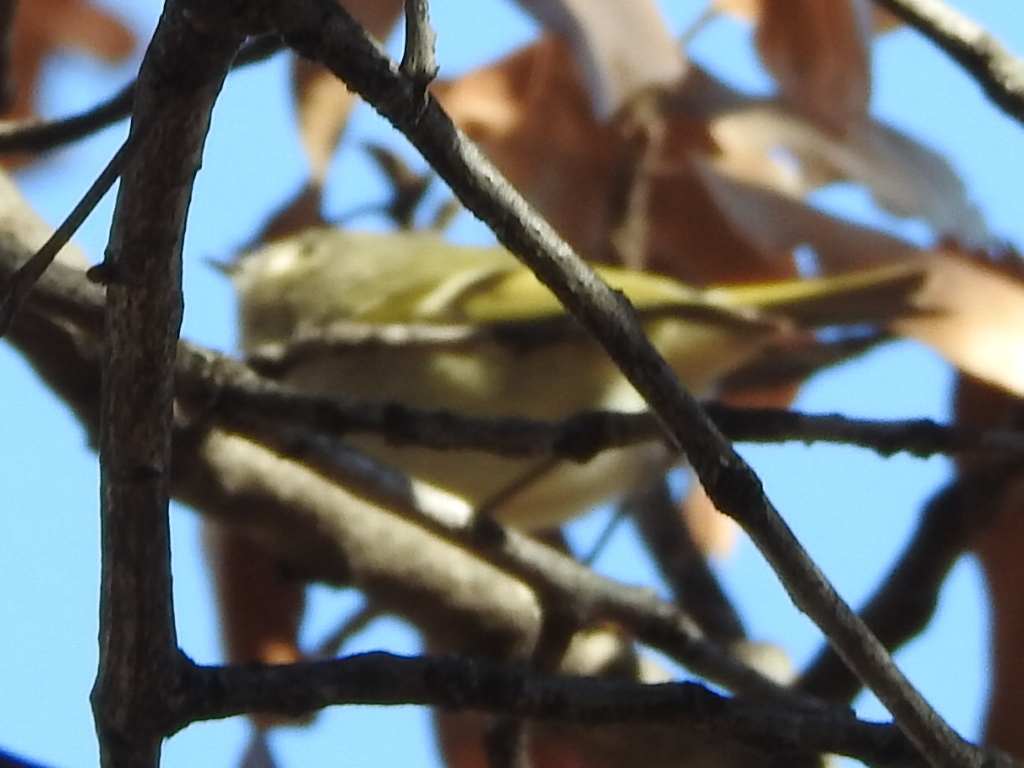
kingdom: Animalia
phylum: Chordata
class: Aves
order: Passeriformes
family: Regulidae
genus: Regulus
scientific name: Regulus calendula
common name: Ruby-crowned kinglet
